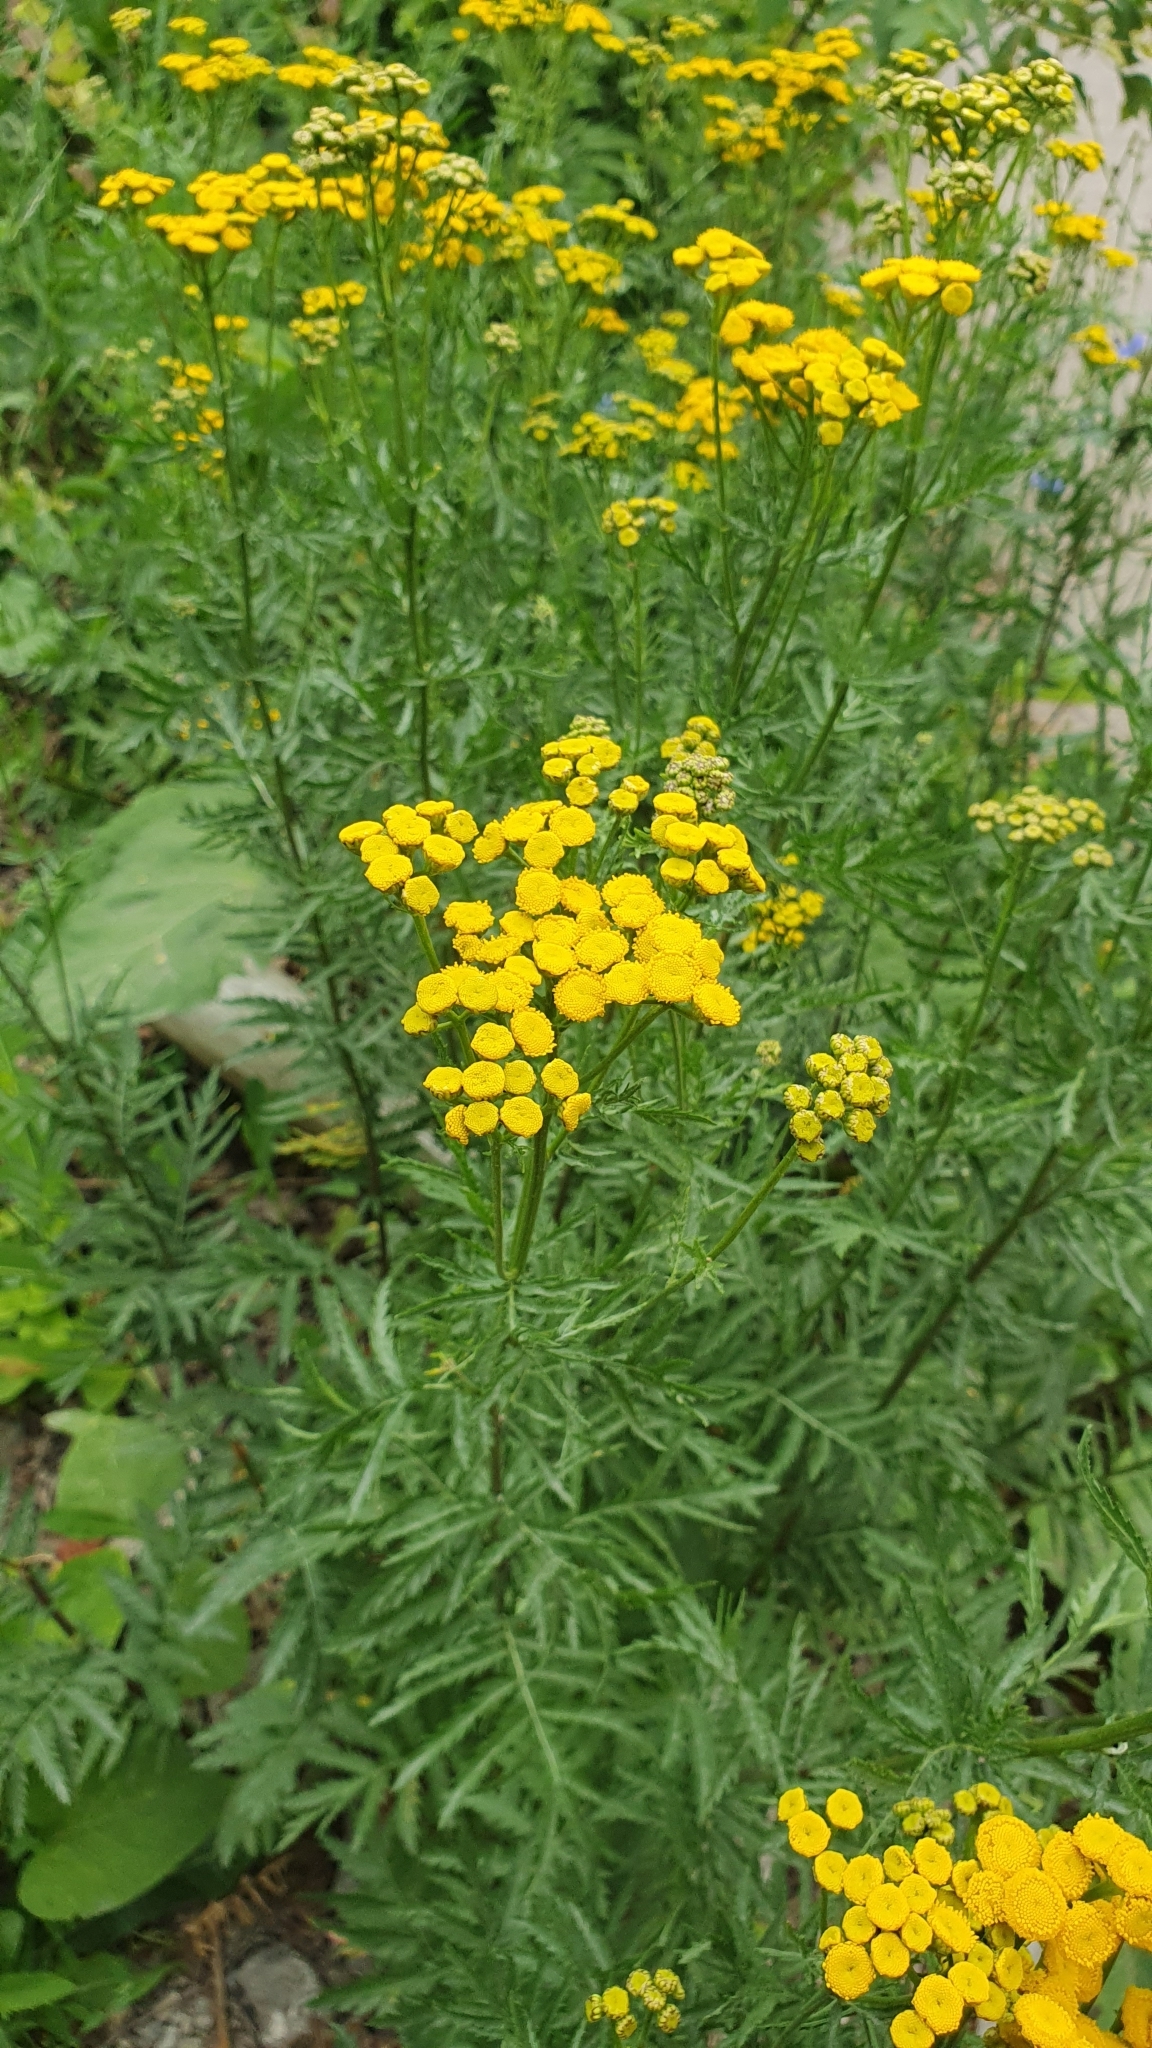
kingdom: Plantae
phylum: Tracheophyta
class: Magnoliopsida
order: Asterales
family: Asteraceae
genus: Tanacetum
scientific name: Tanacetum vulgare
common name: Common tansy
